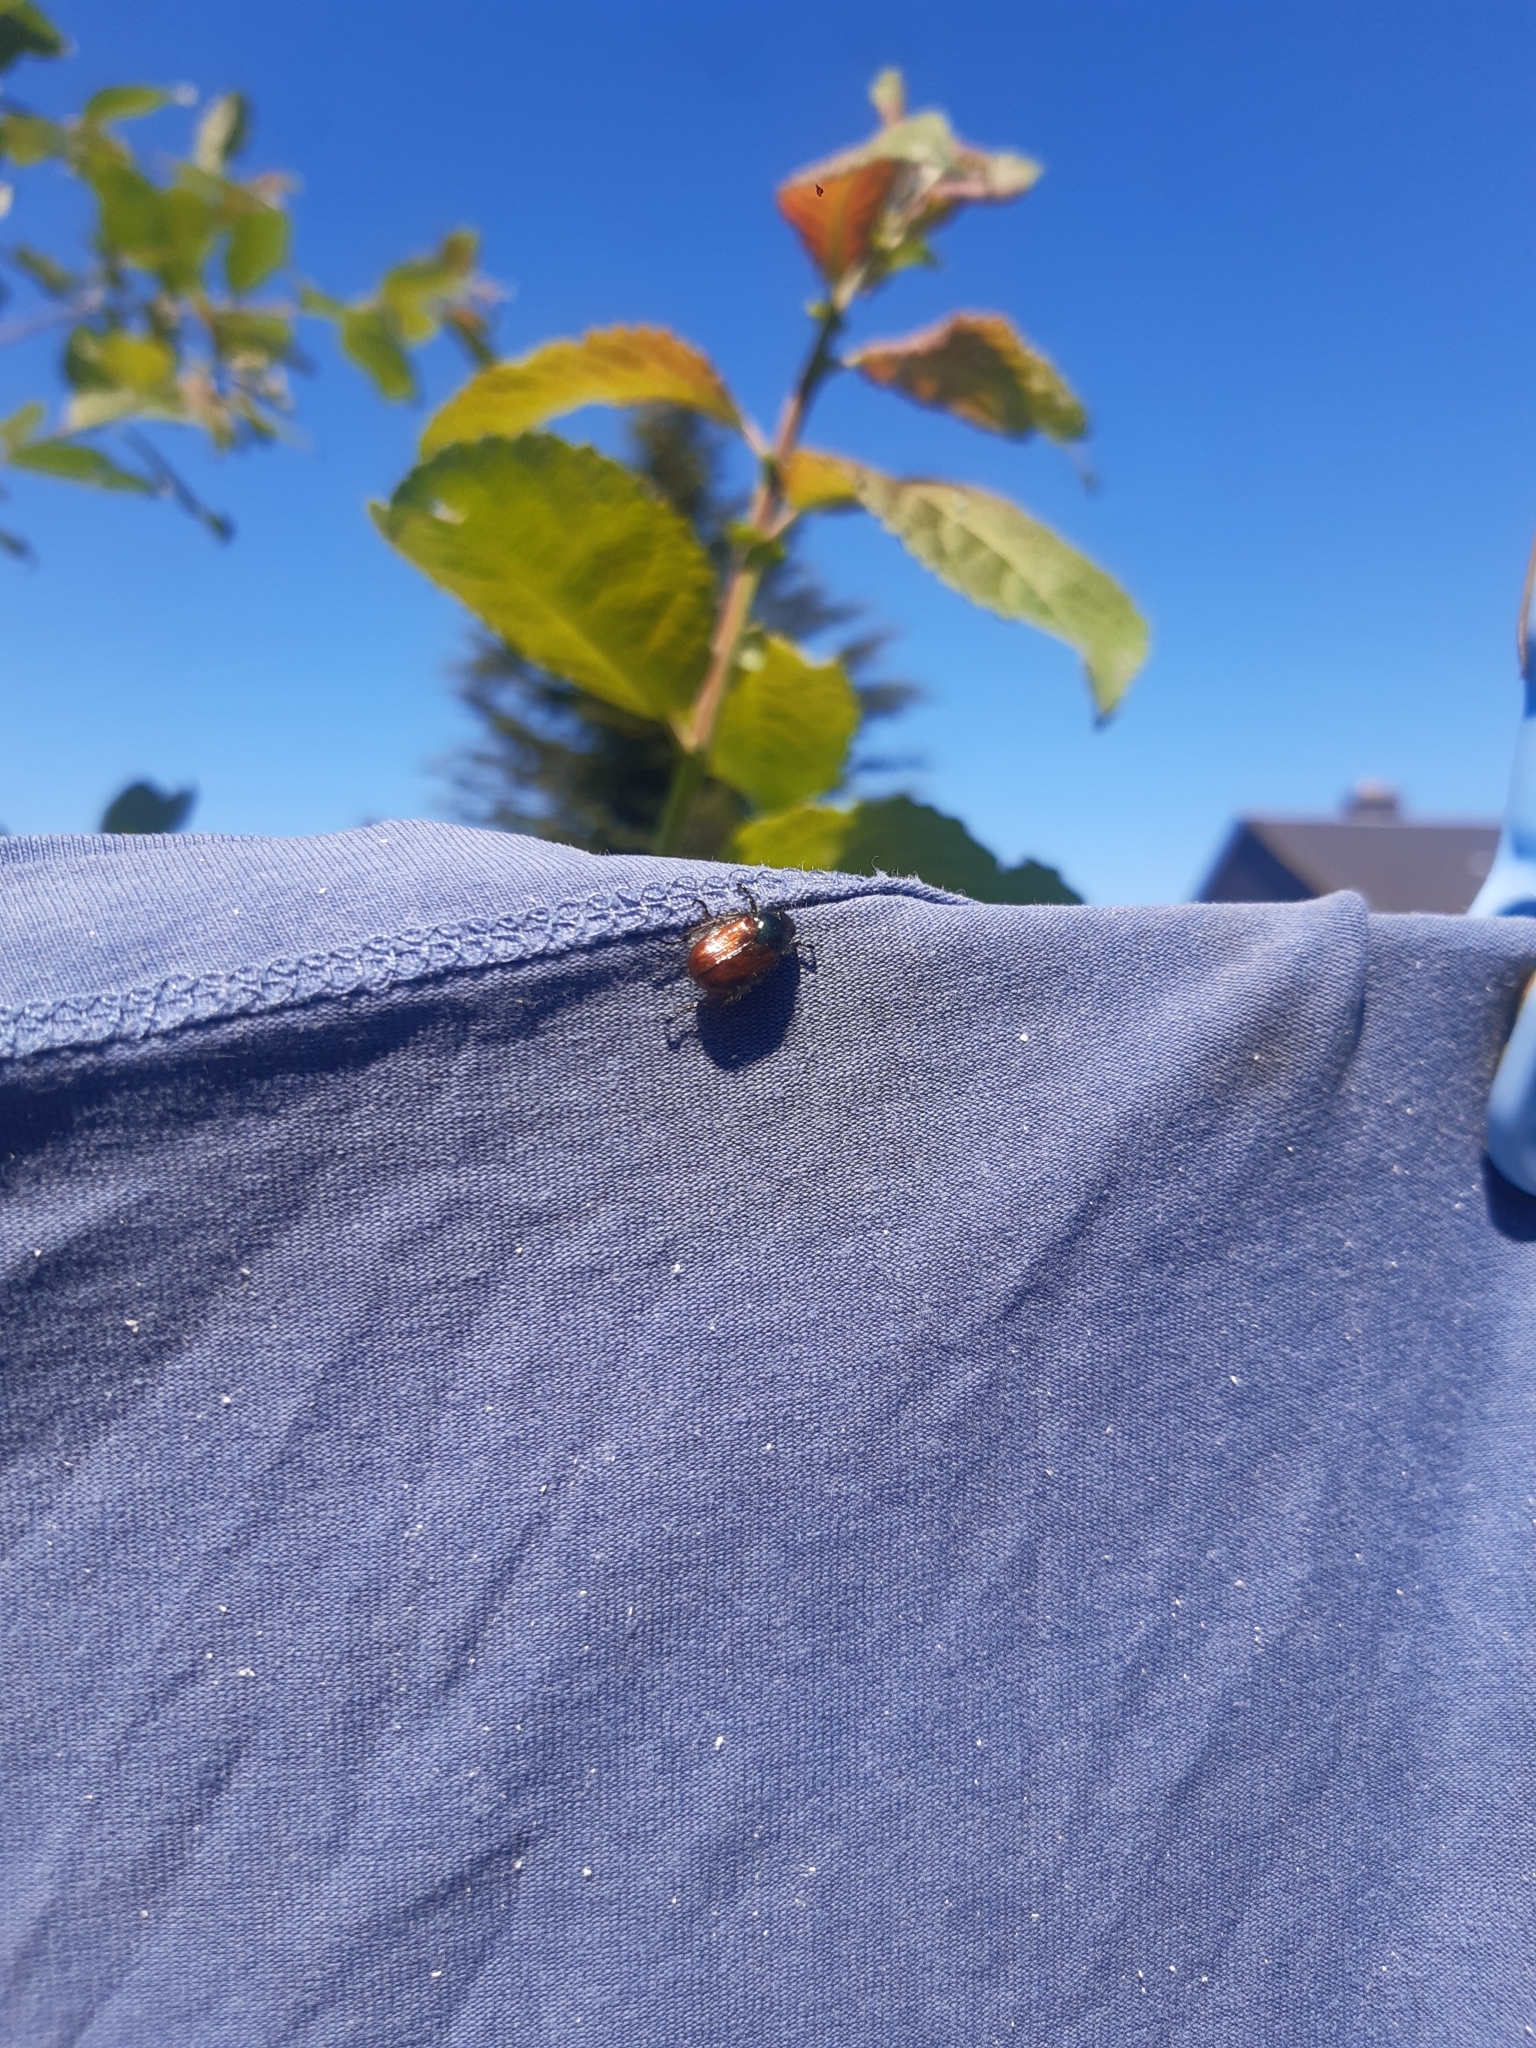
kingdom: Animalia
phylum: Arthropoda
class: Insecta
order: Coleoptera
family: Scarabaeidae
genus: Phyllopertha
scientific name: Phyllopertha horticola
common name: Garden chafer
